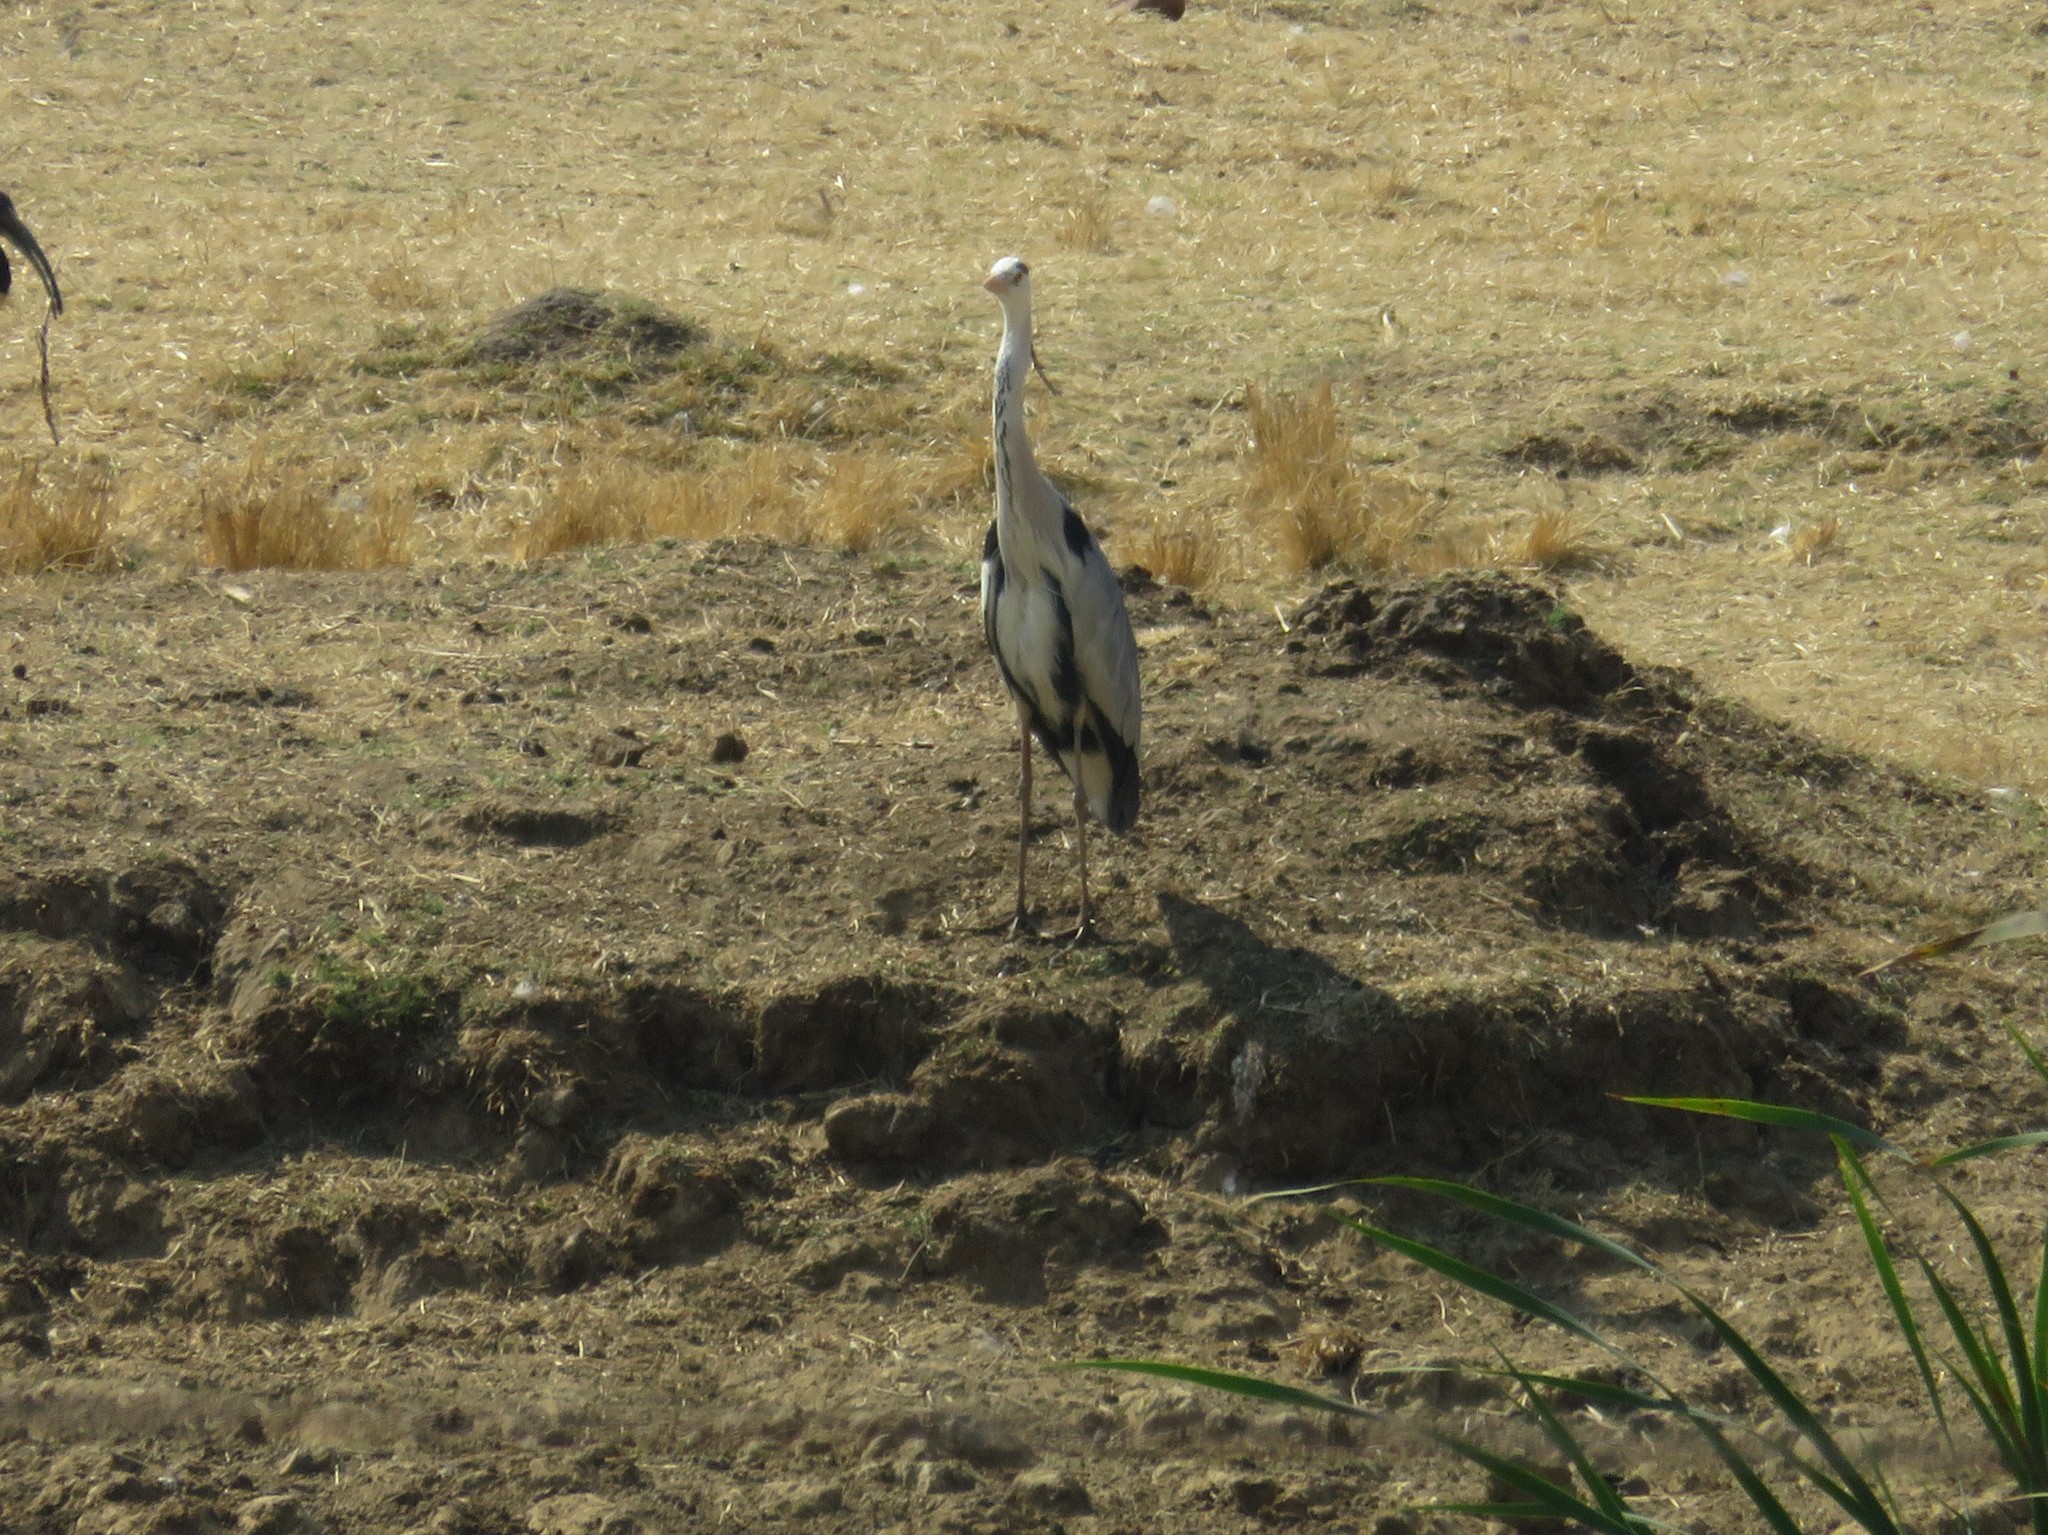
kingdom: Animalia
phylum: Chordata
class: Aves
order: Pelecaniformes
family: Ardeidae
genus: Ardea
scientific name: Ardea cinerea
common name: Grey heron
